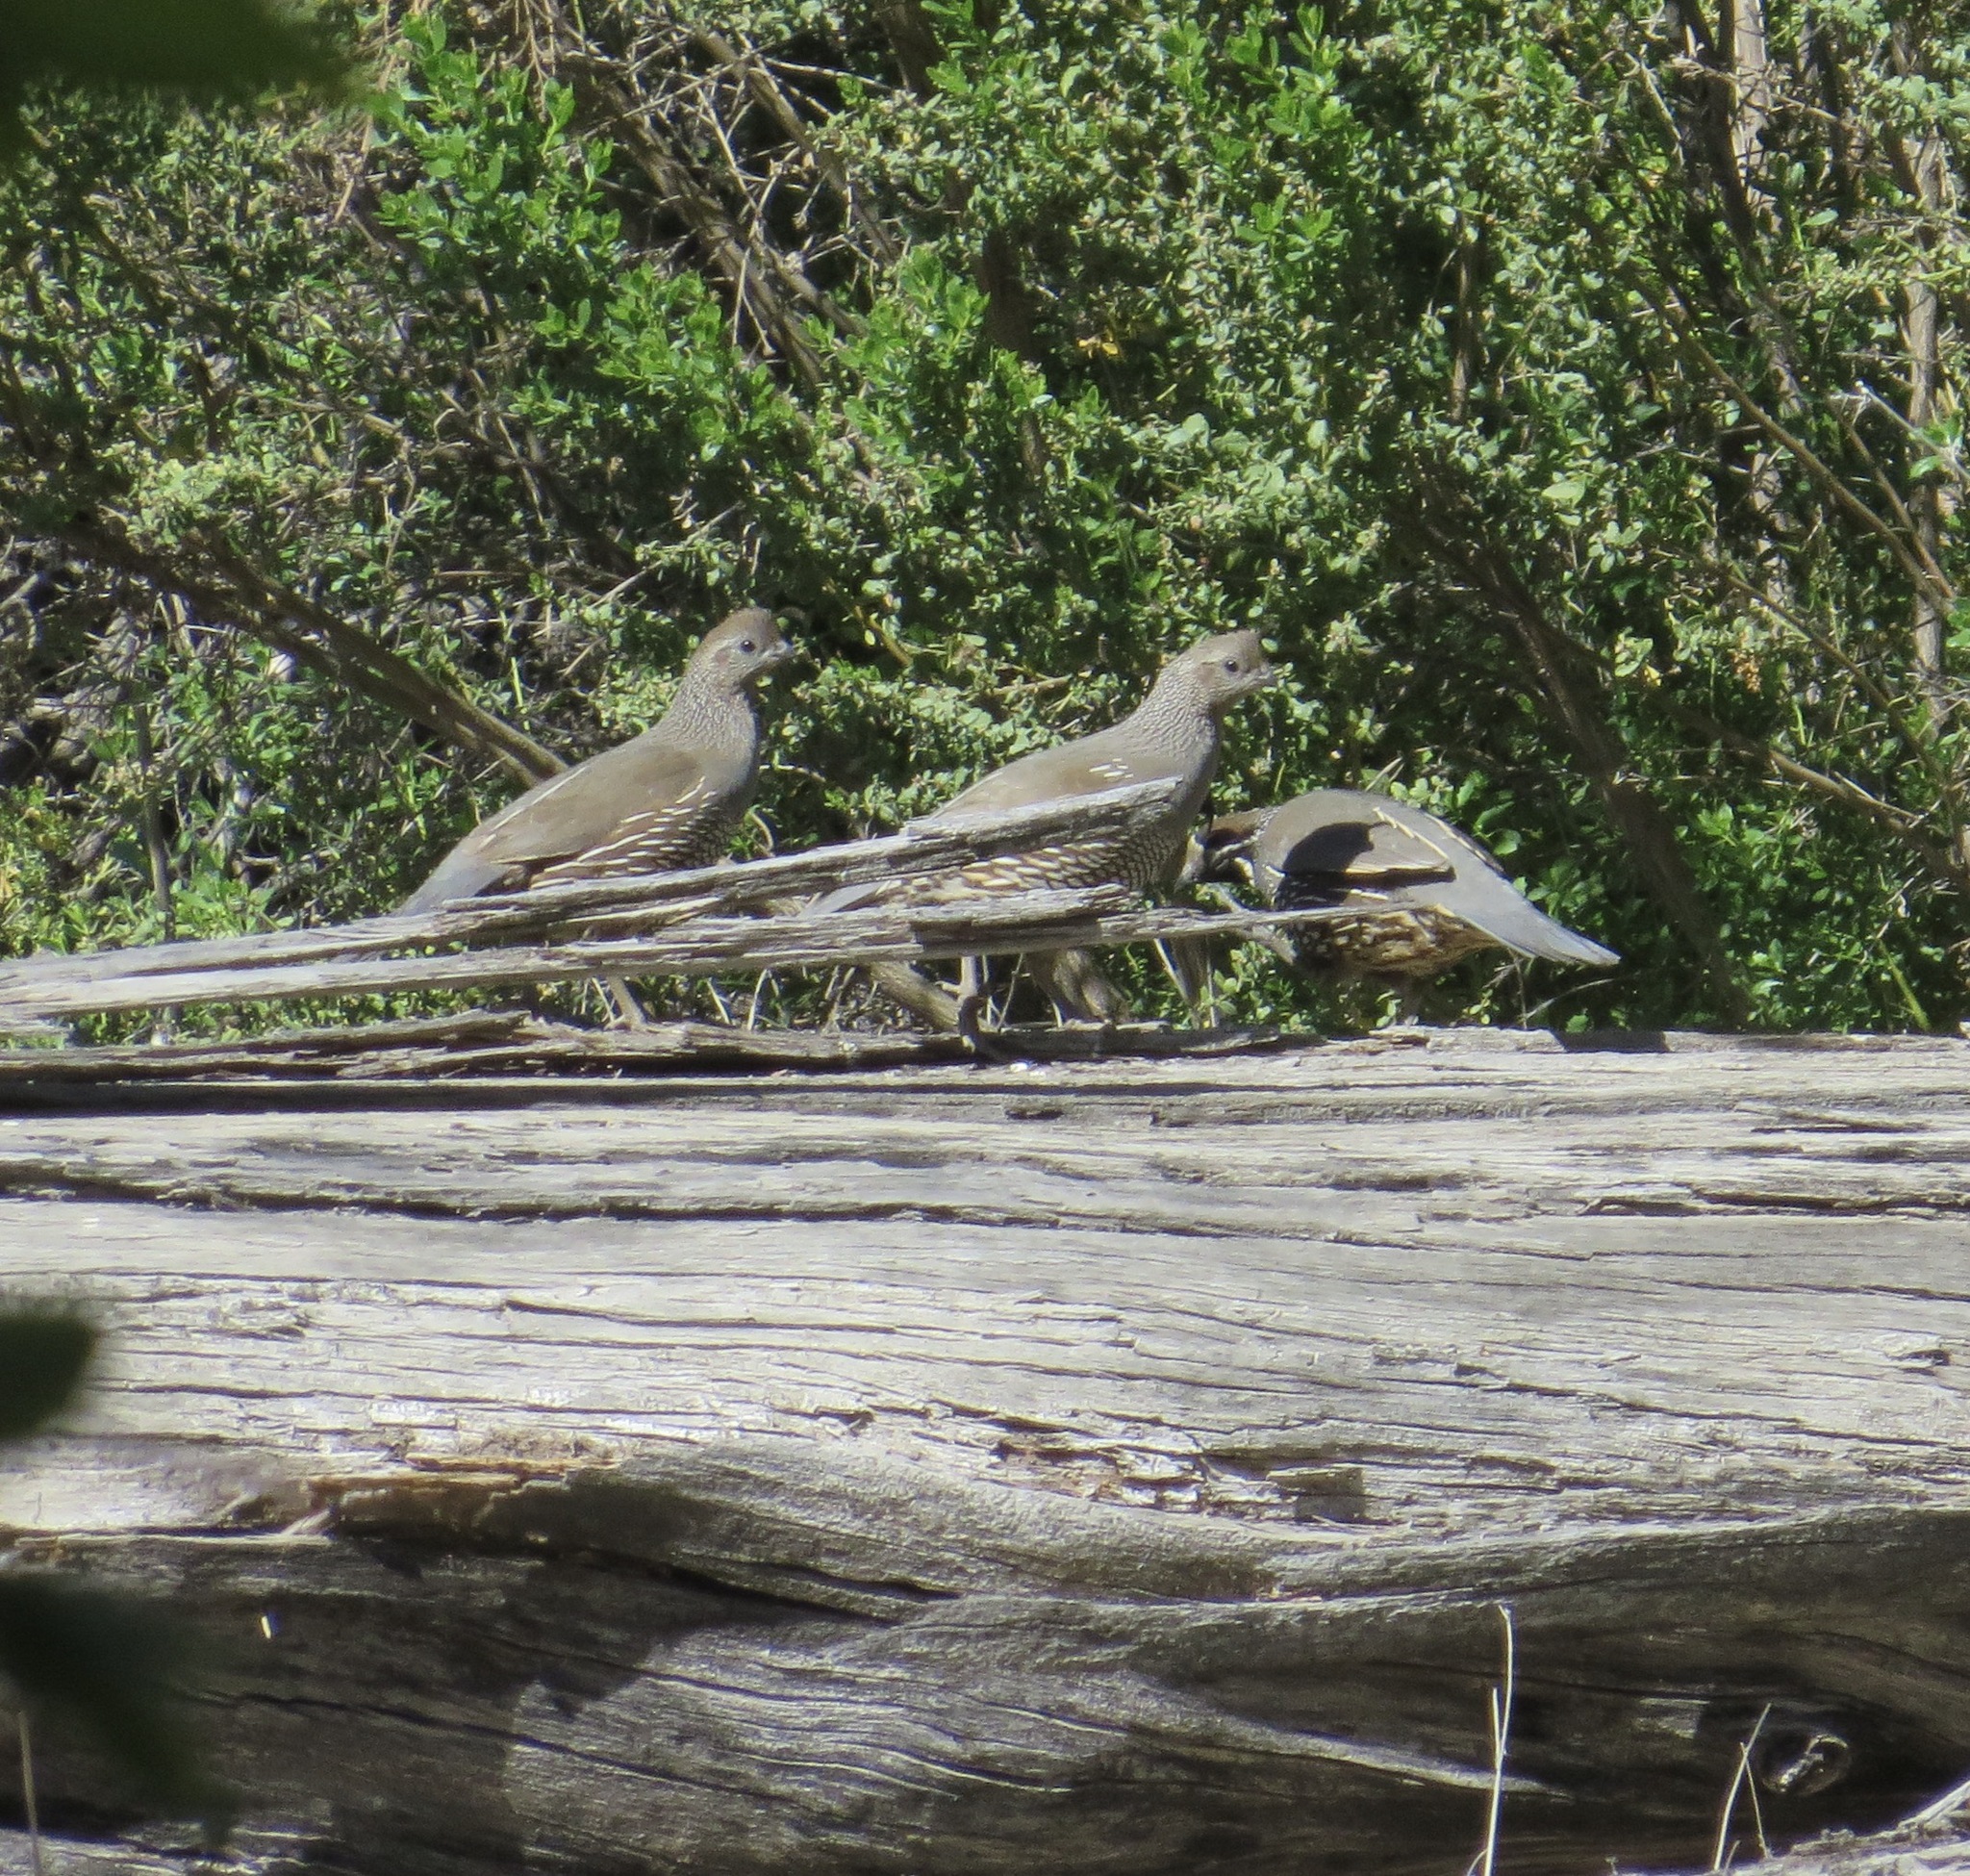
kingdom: Animalia
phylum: Chordata
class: Aves
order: Galliformes
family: Odontophoridae
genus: Callipepla
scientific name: Callipepla californica
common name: California quail
